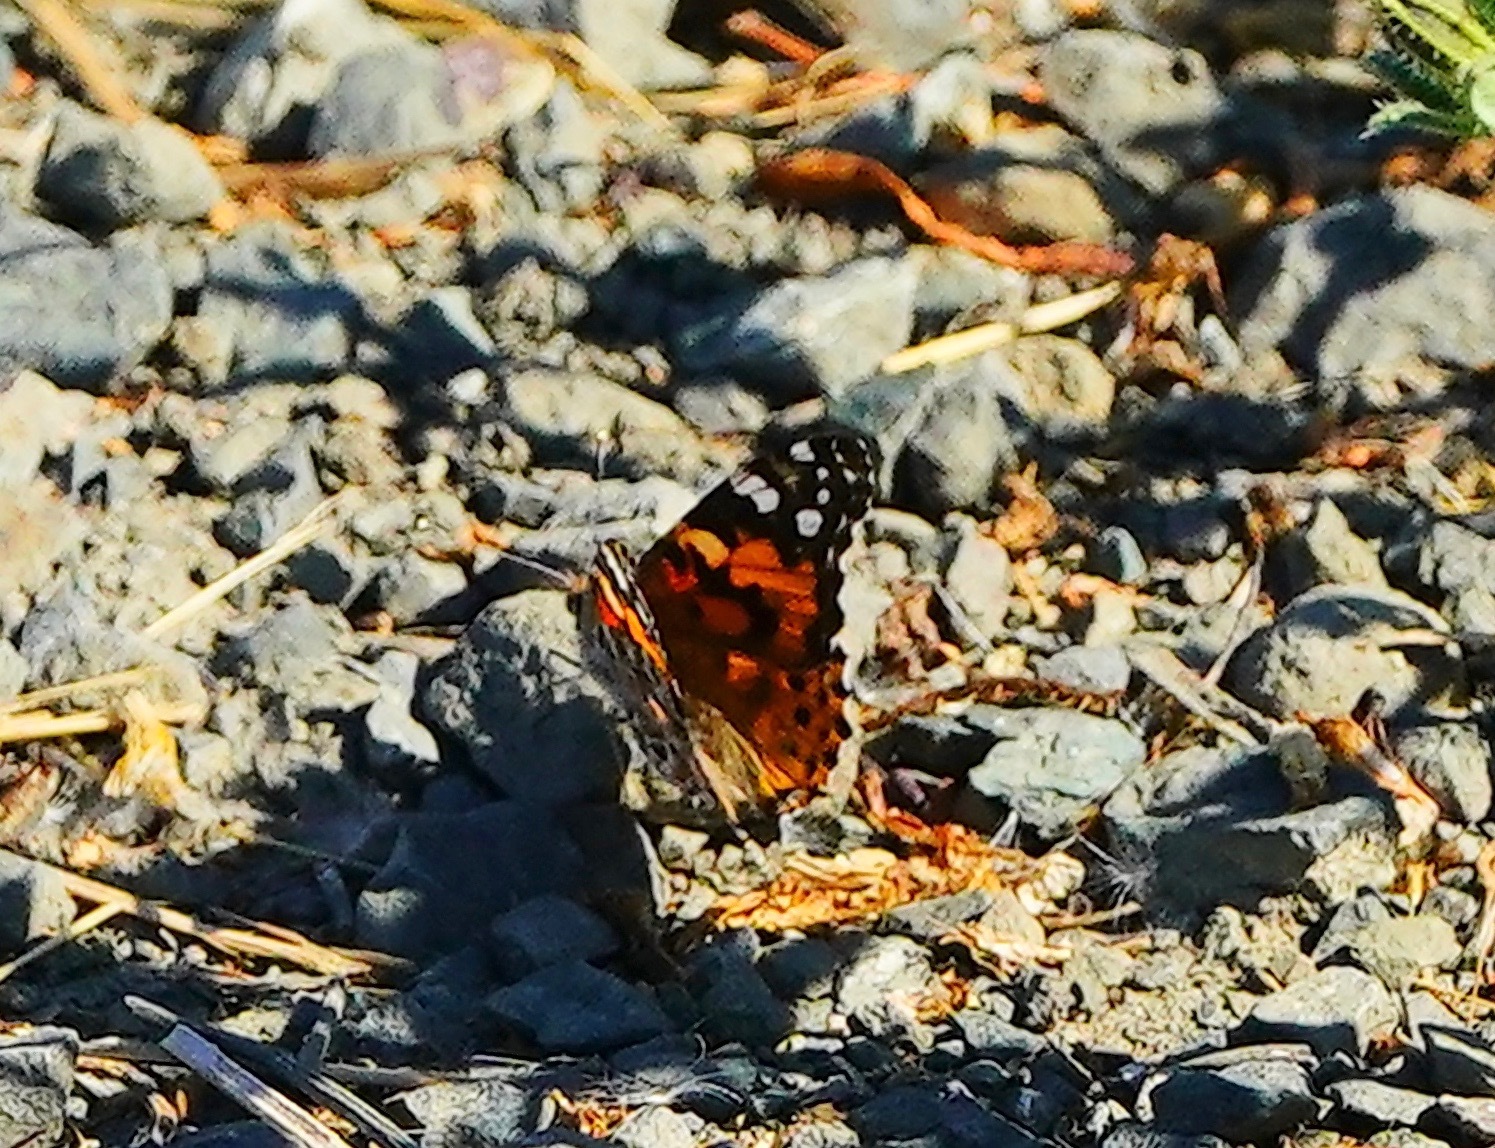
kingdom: Animalia
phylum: Arthropoda
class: Insecta
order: Lepidoptera
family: Nymphalidae
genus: Vanessa
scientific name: Vanessa cardui
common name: Painted lady
